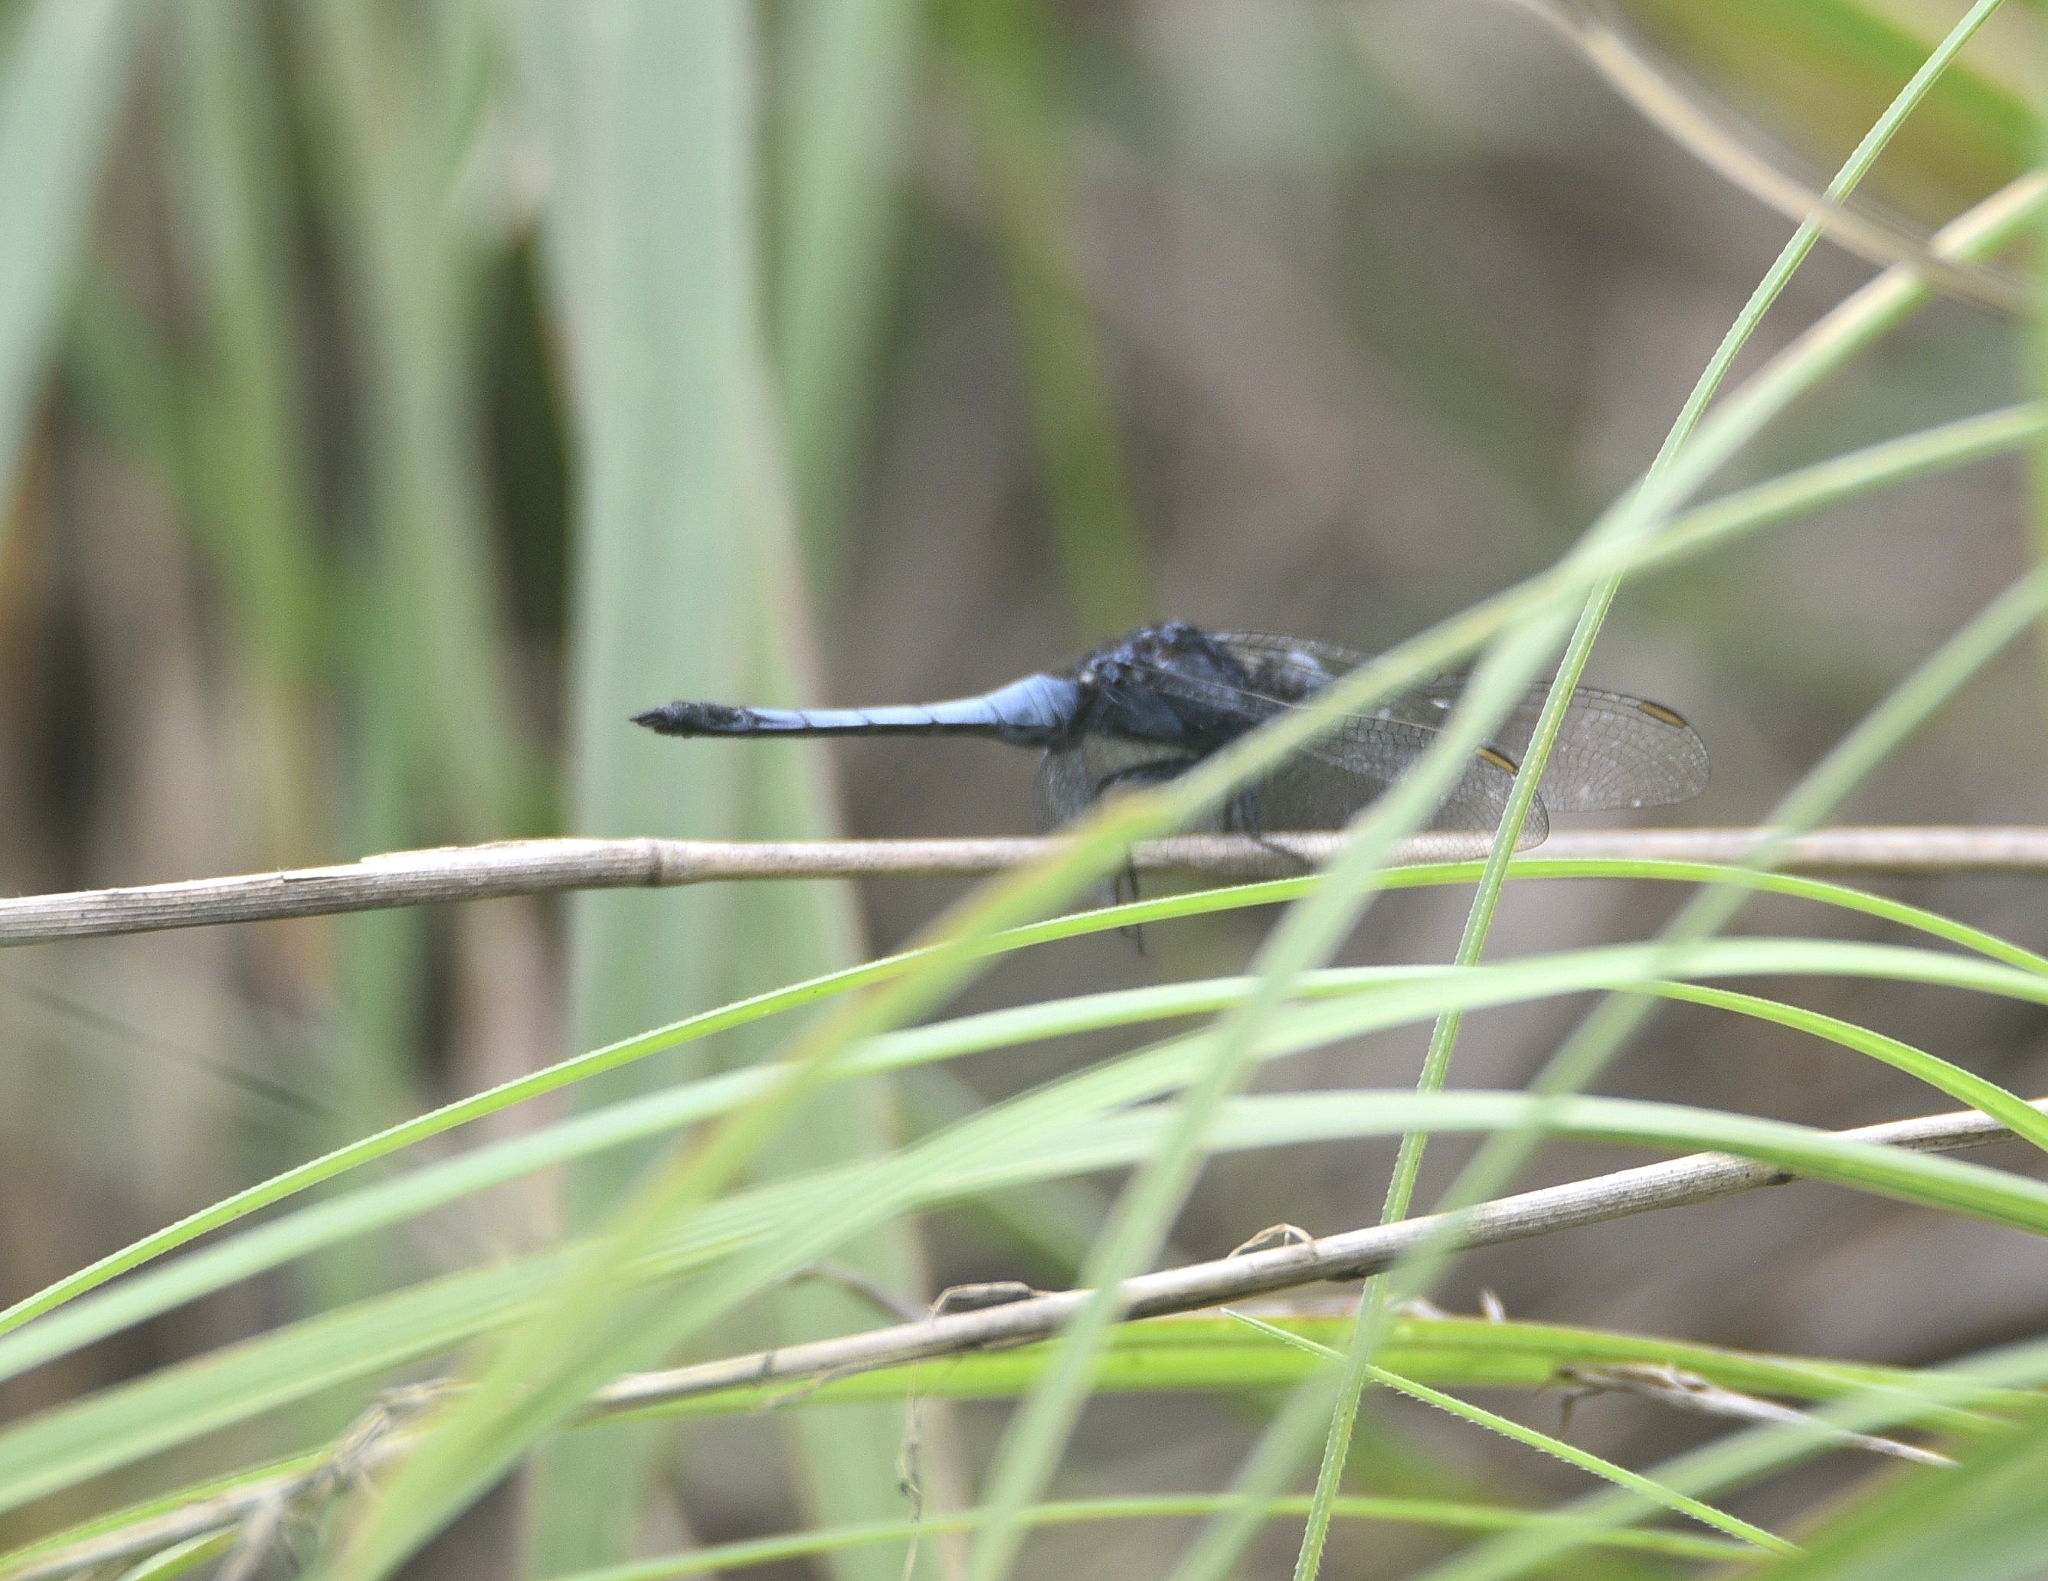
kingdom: Animalia
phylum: Arthropoda
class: Insecta
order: Odonata
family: Libellulidae
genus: Orthetrum
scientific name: Orthetrum glaucum
